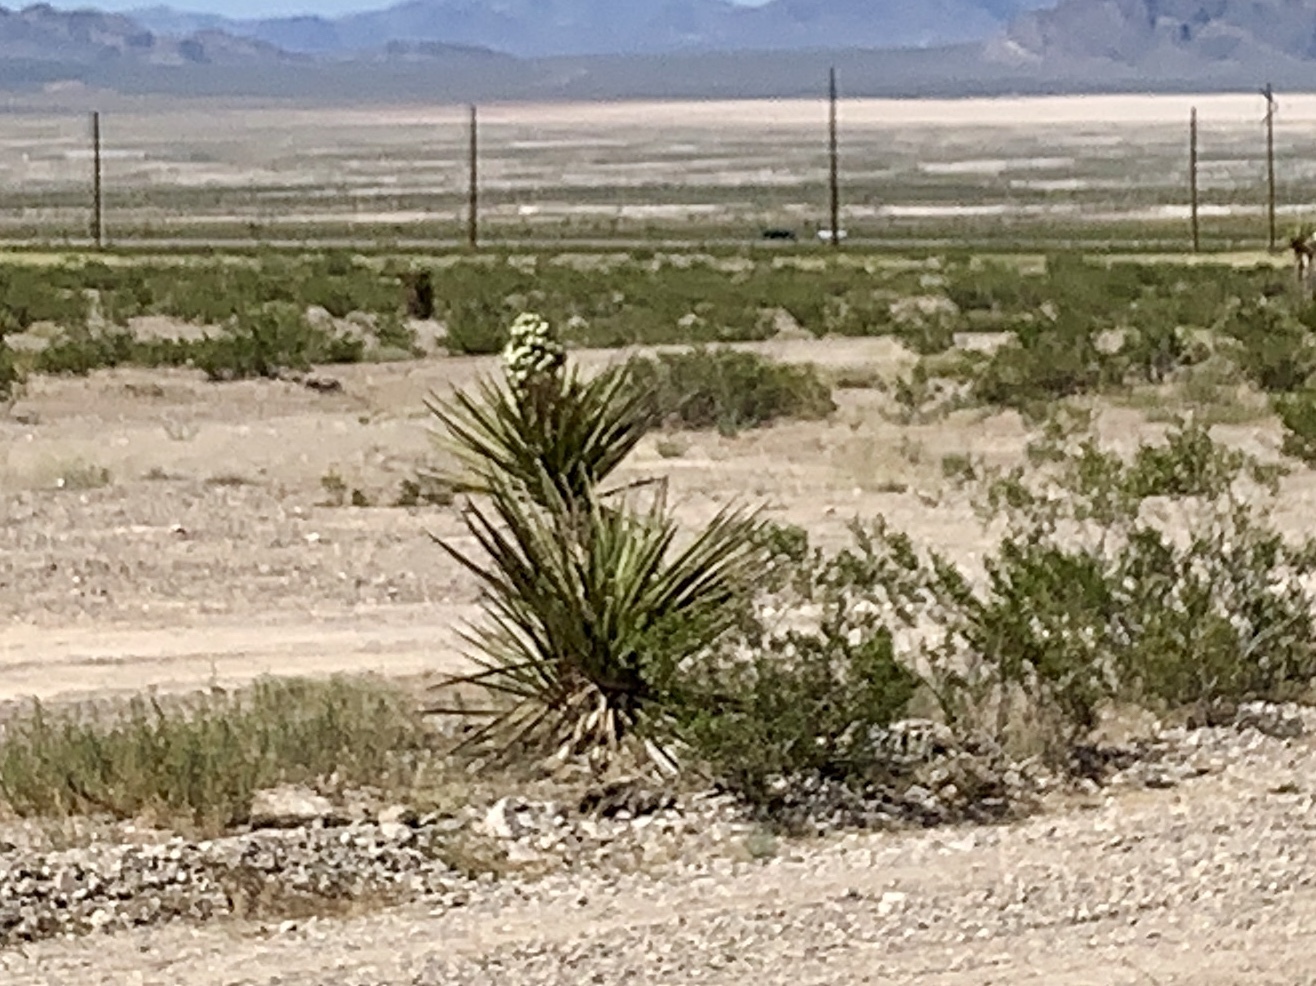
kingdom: Plantae
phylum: Tracheophyta
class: Liliopsida
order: Asparagales
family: Asparagaceae
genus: Yucca
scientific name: Yucca schidigera
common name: Mojave yucca
